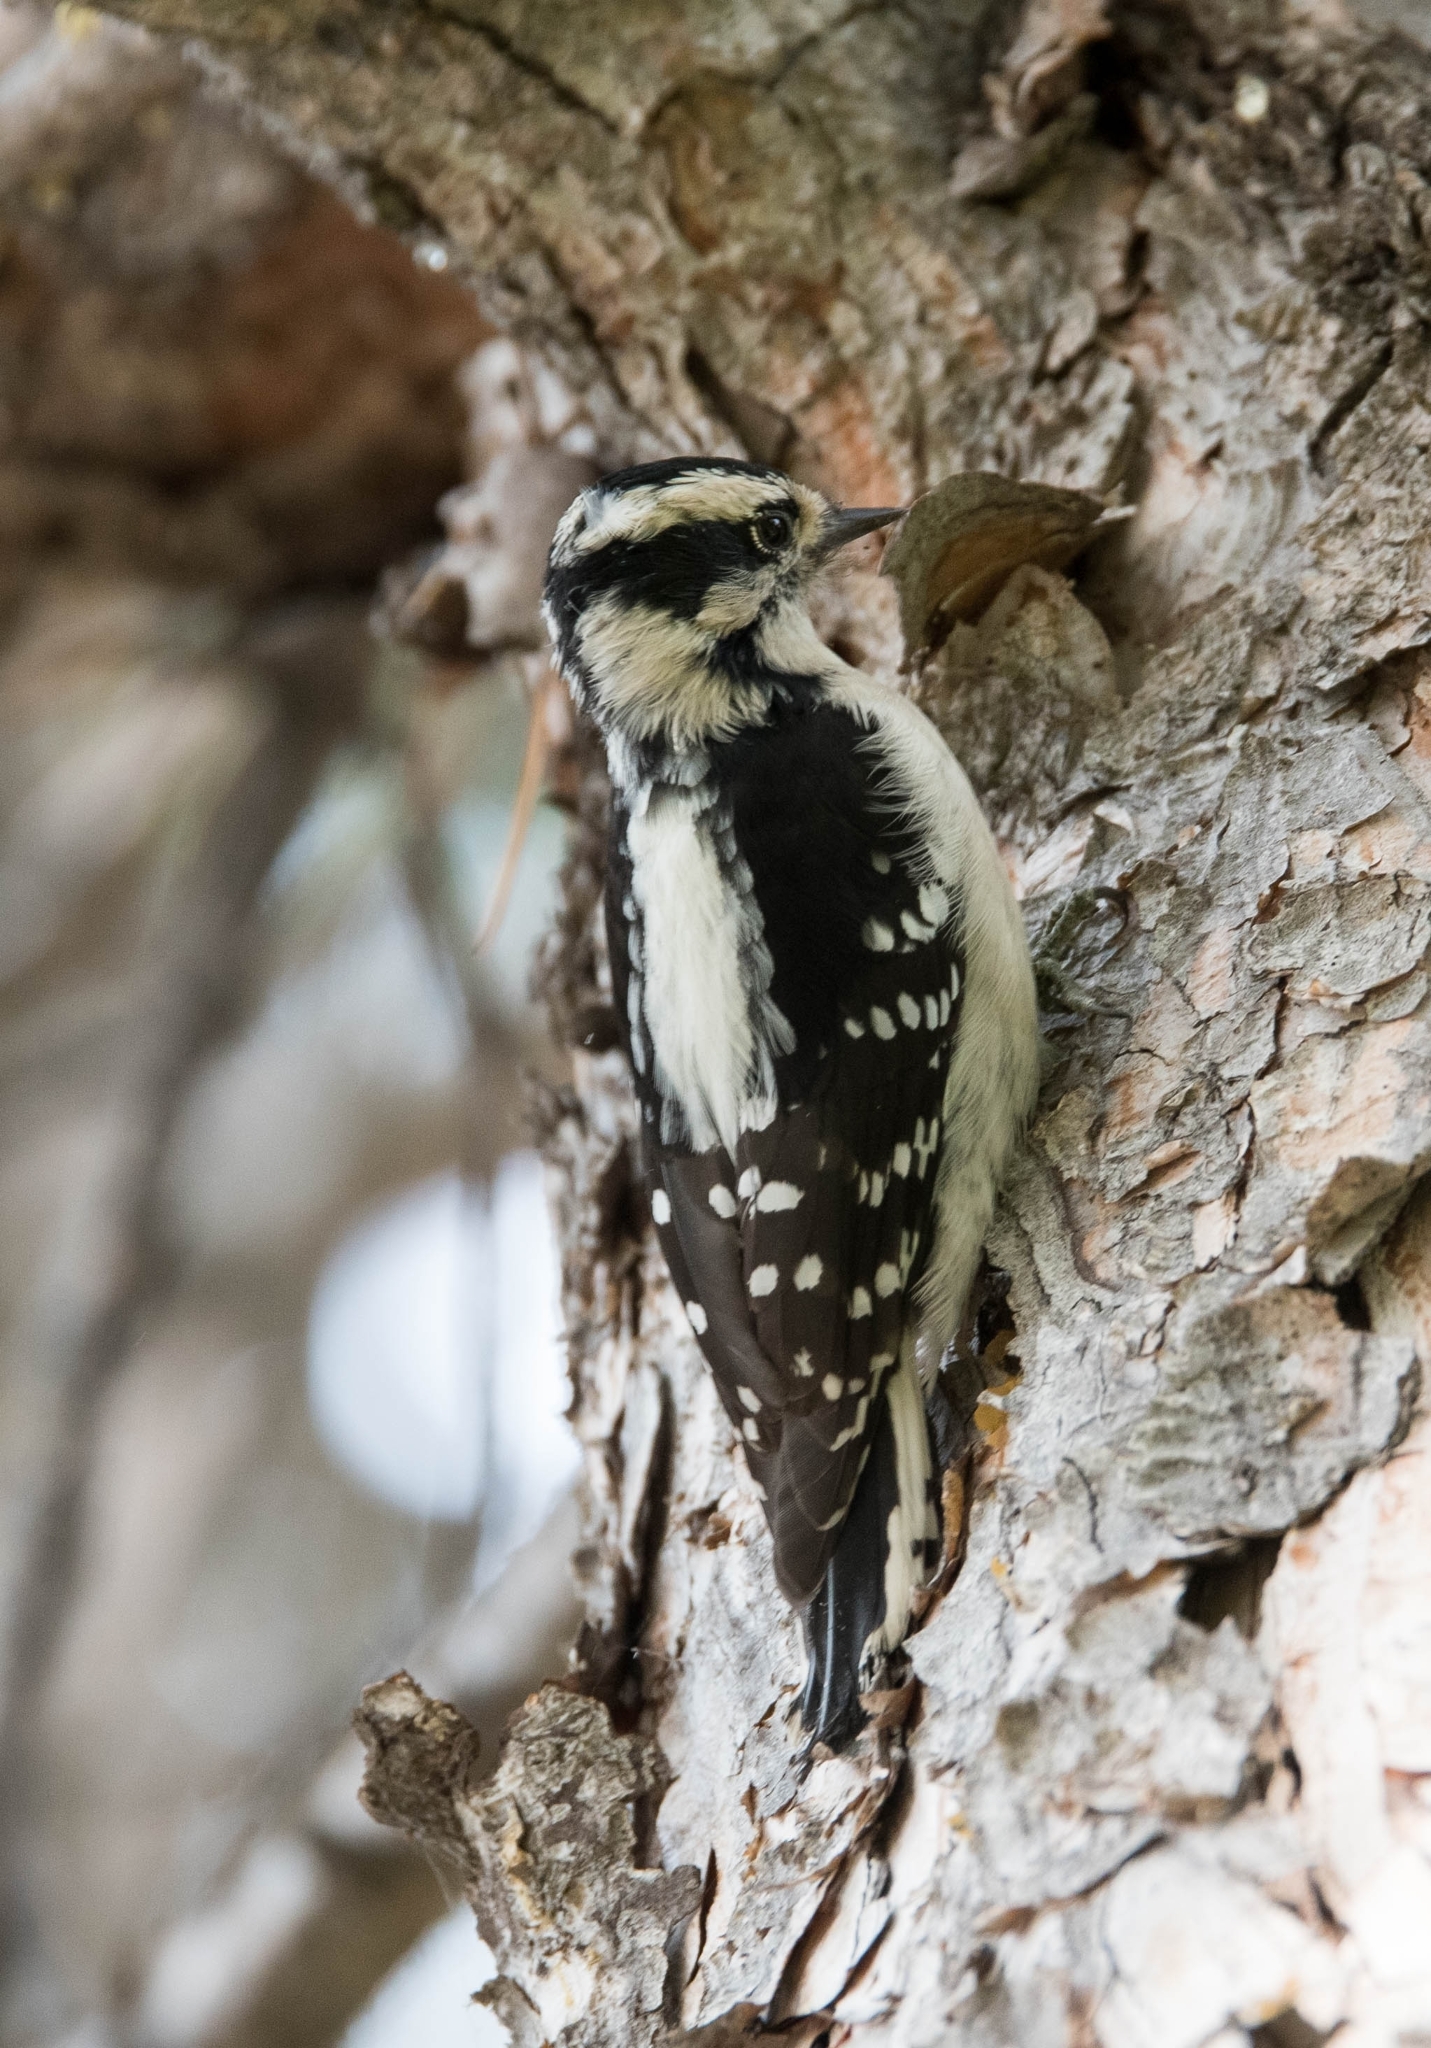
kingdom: Animalia
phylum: Chordata
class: Aves
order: Piciformes
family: Picidae
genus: Dryobates
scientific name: Dryobates pubescens
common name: Downy woodpecker
